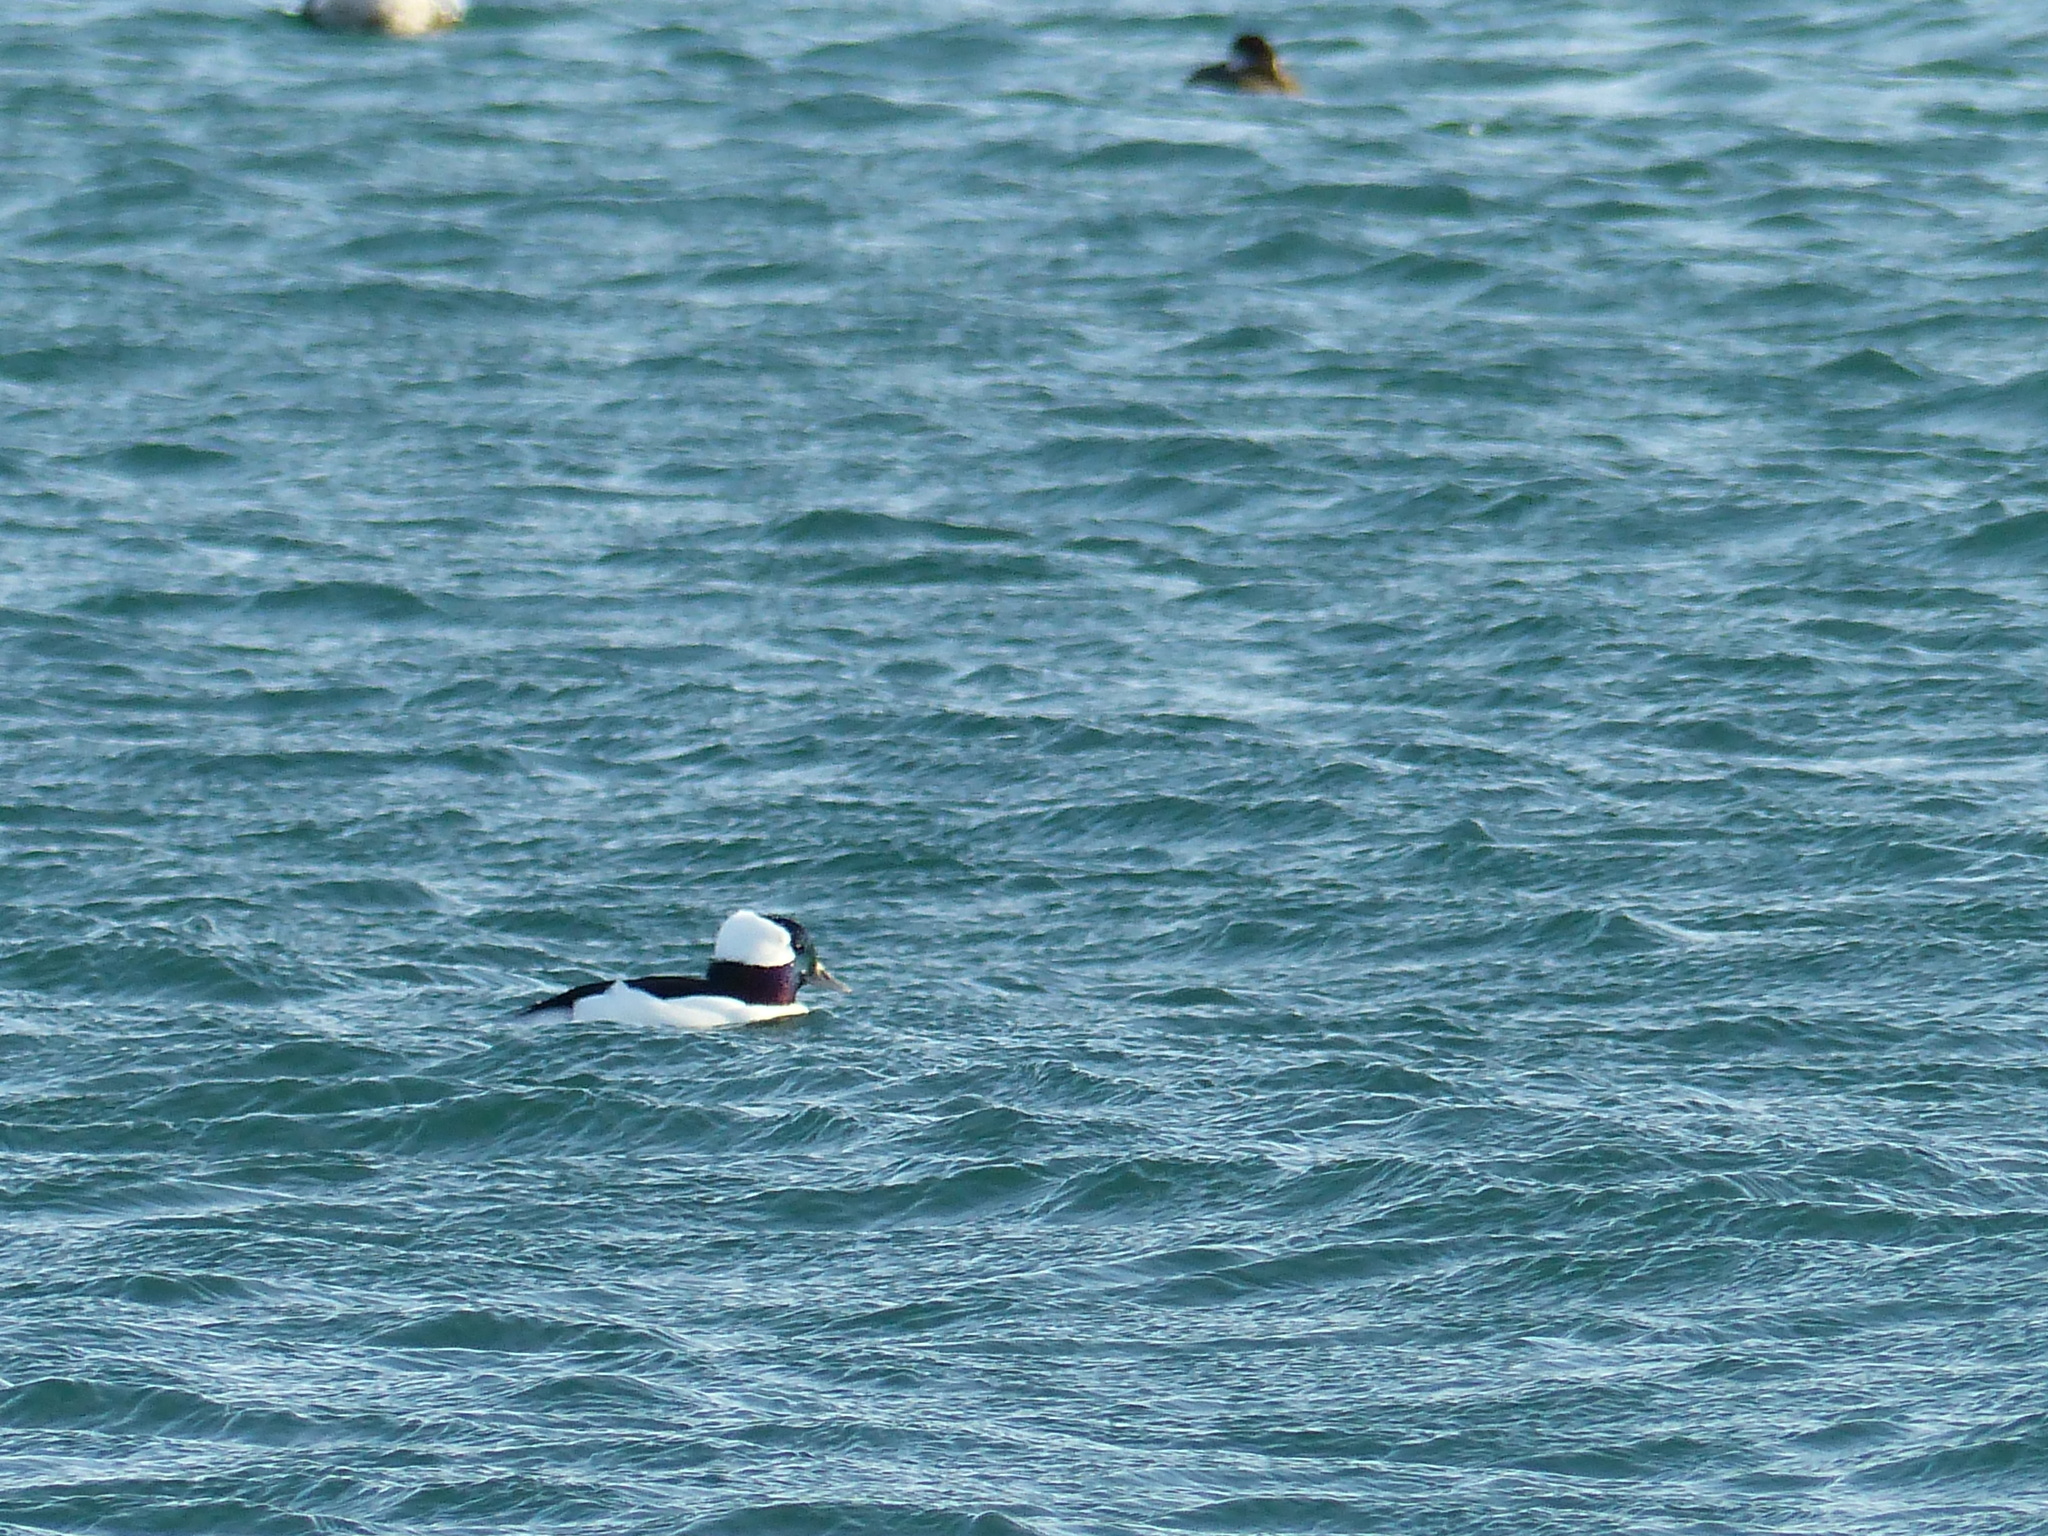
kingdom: Animalia
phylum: Chordata
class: Aves
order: Anseriformes
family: Anatidae
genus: Bucephala
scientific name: Bucephala albeola
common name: Bufflehead
